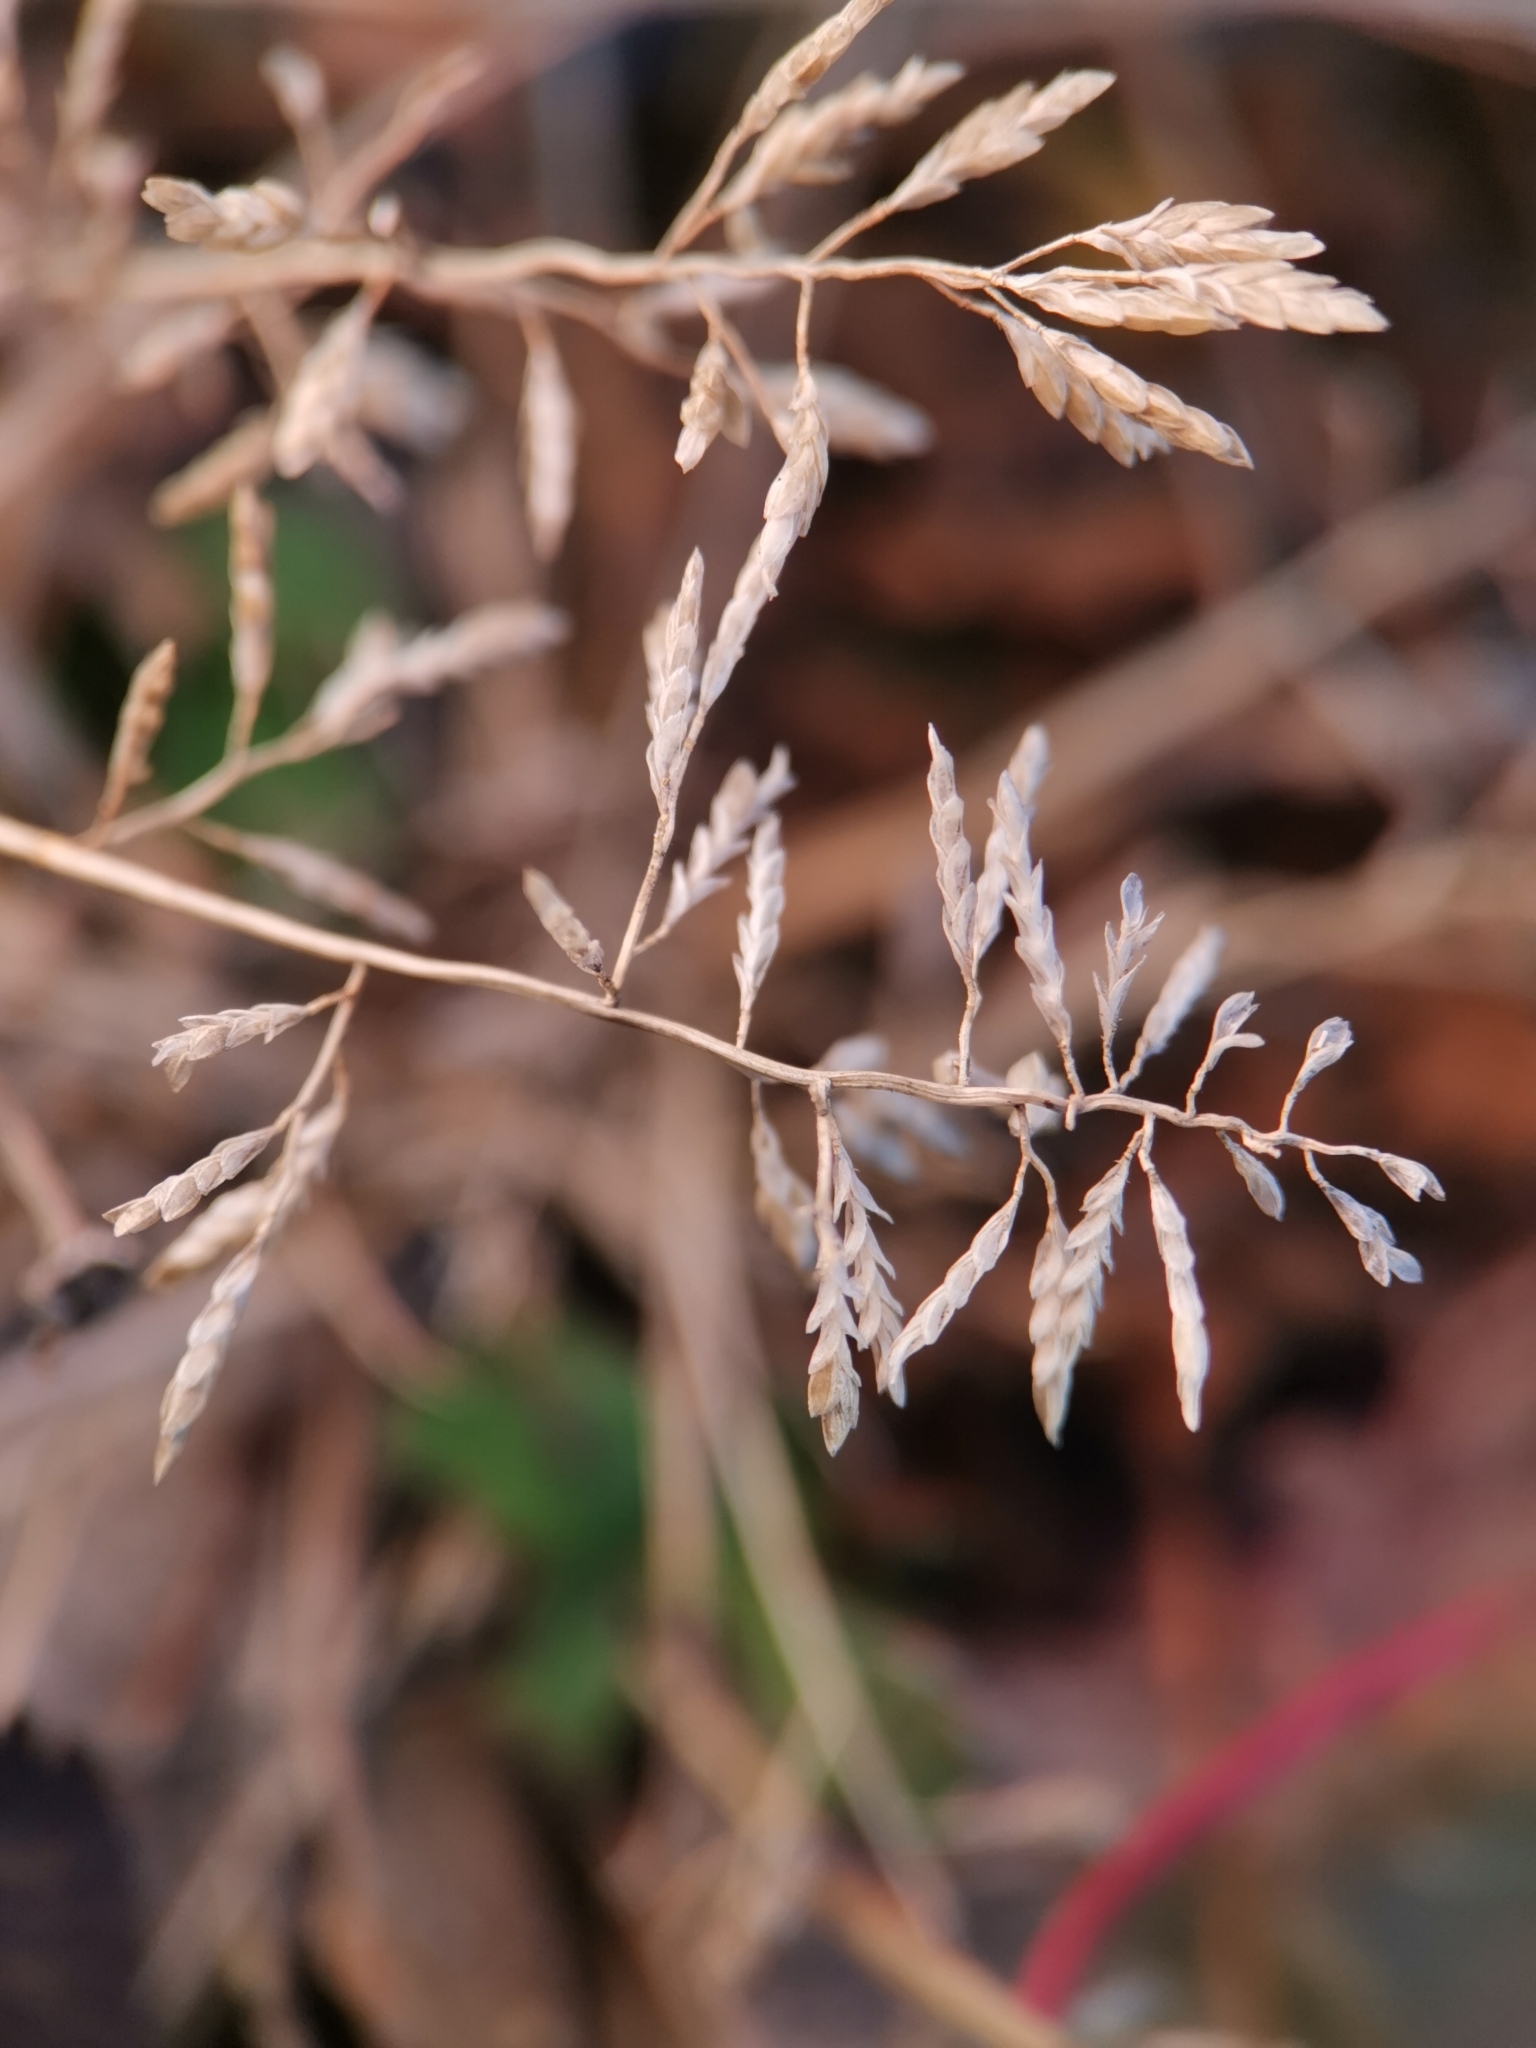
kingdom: Plantae
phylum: Tracheophyta
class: Liliopsida
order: Poales
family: Poaceae
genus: Eragrostis
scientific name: Eragrostis minor
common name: Small love-grass
